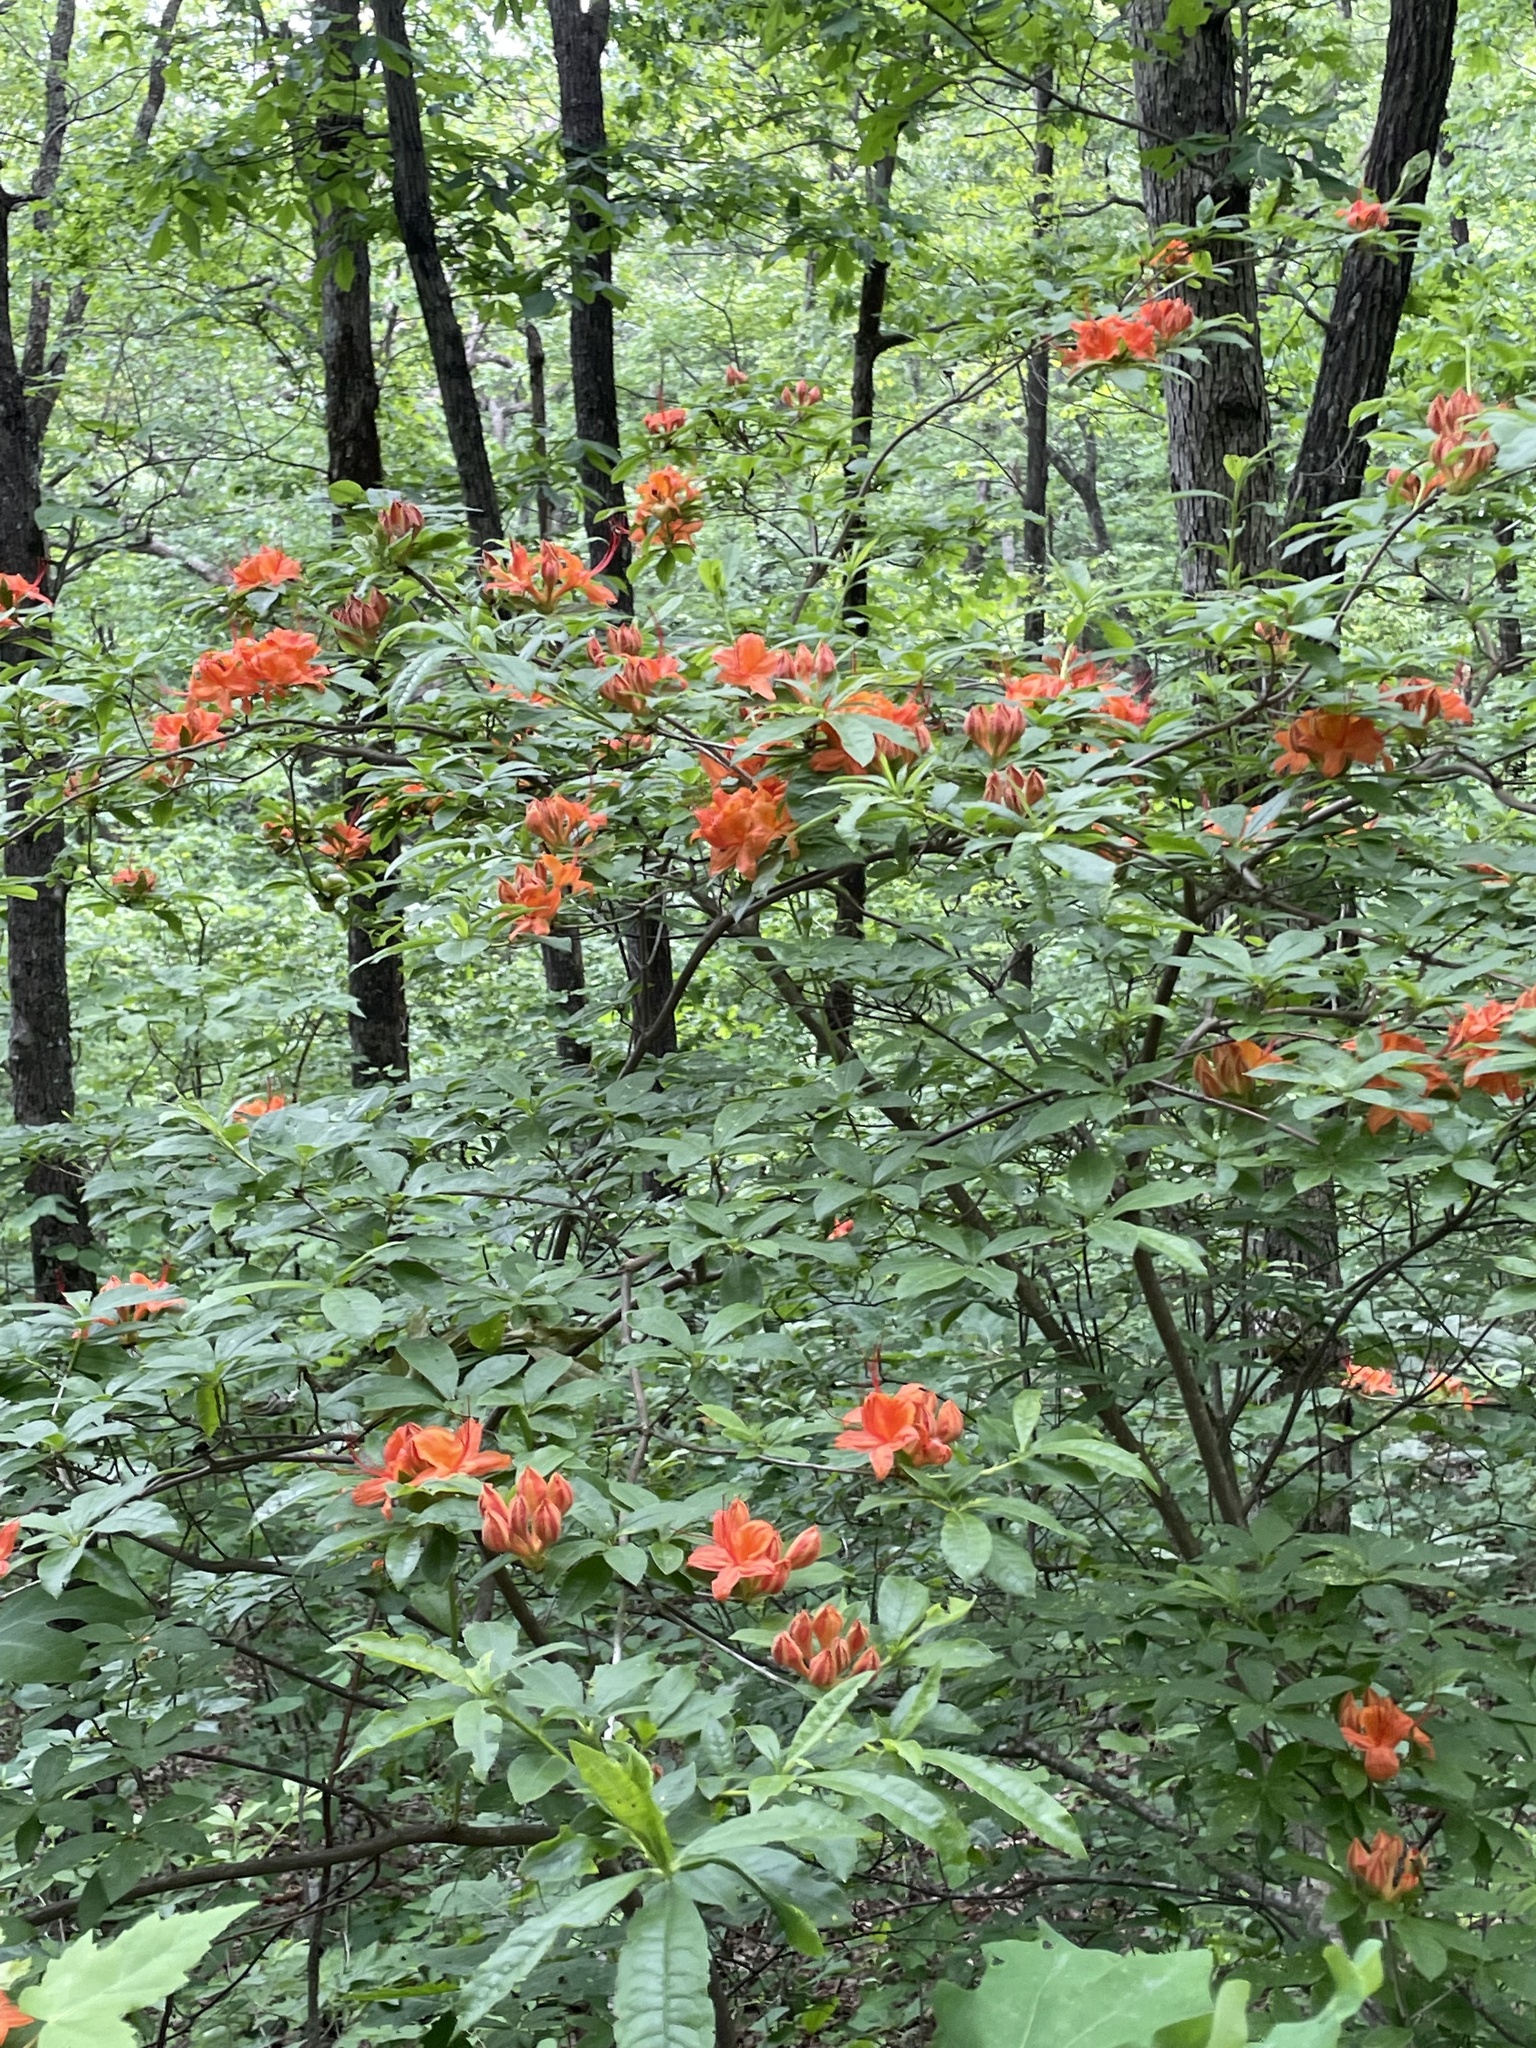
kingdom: Plantae
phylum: Tracheophyta
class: Magnoliopsida
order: Ericales
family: Ericaceae
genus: Rhododendron
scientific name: Rhododendron calendulaceum
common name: Flame azalea
